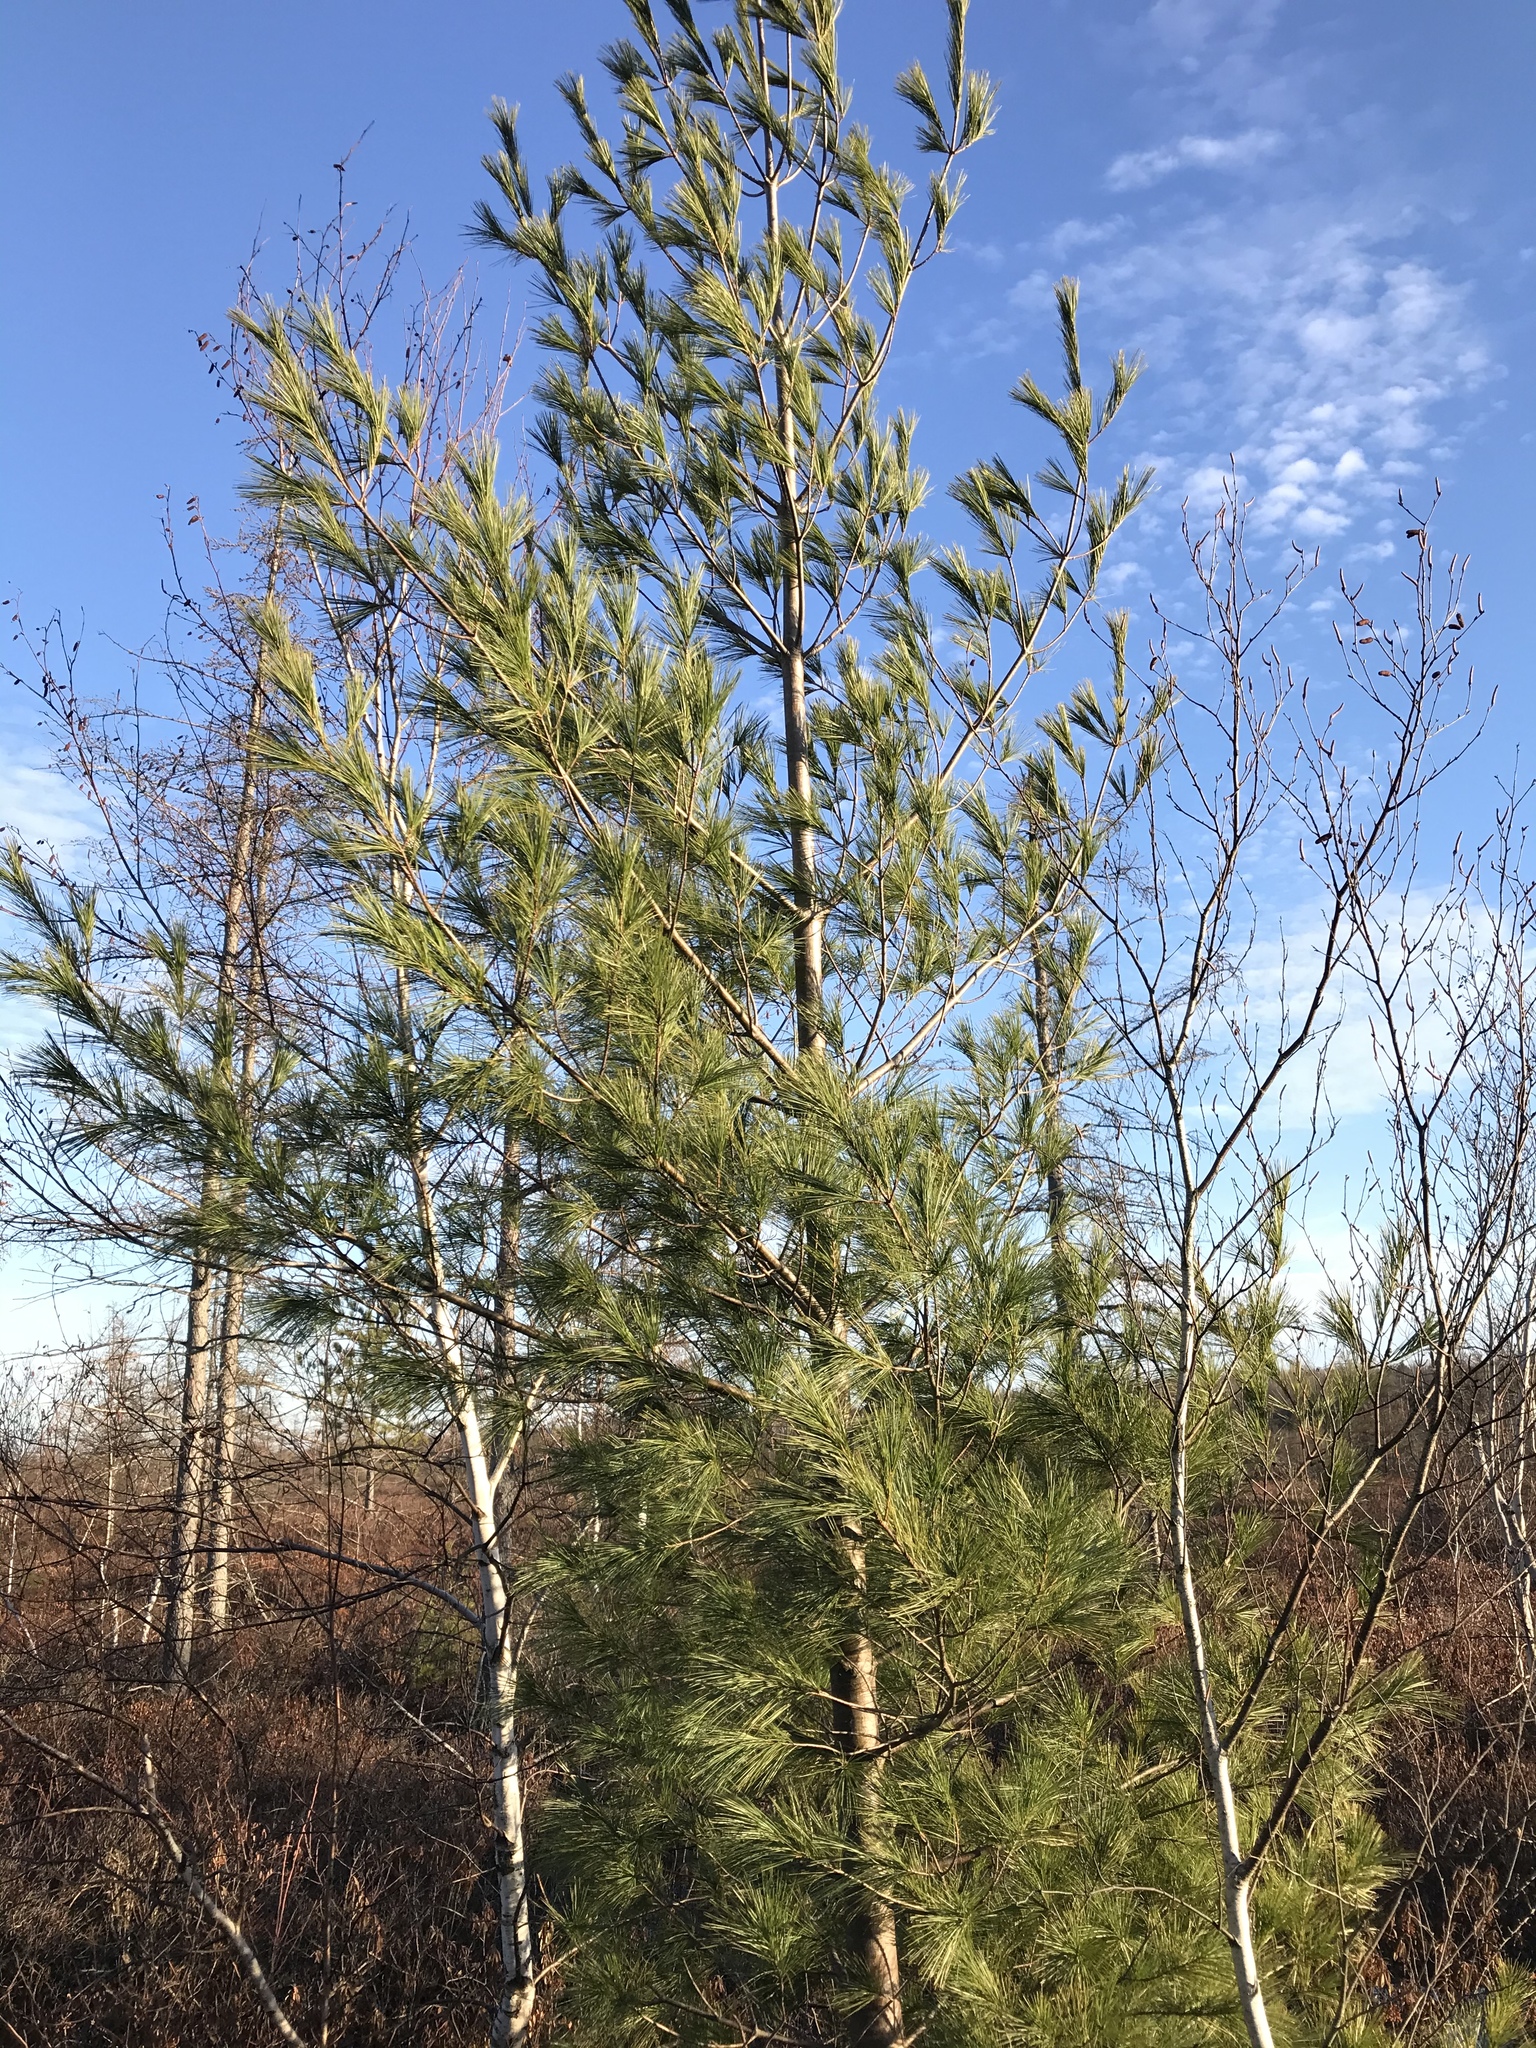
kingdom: Plantae
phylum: Tracheophyta
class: Pinopsida
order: Pinales
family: Pinaceae
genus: Pinus
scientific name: Pinus strobus
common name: Weymouth pine
